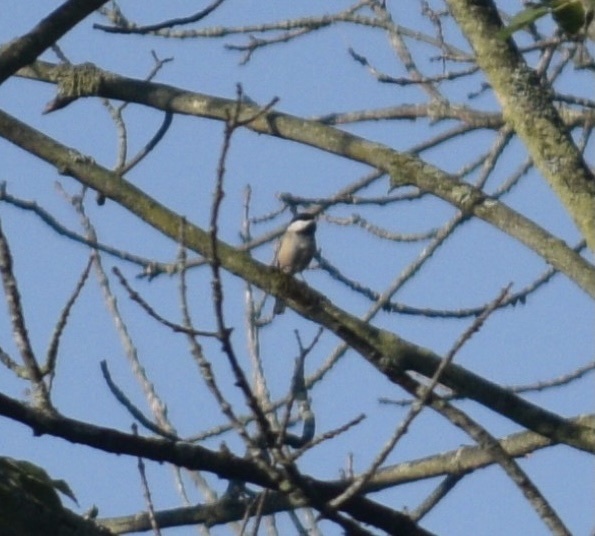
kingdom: Animalia
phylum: Chordata
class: Aves
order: Passeriformes
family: Paridae
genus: Poecile
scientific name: Poecile atricapillus
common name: Black-capped chickadee
